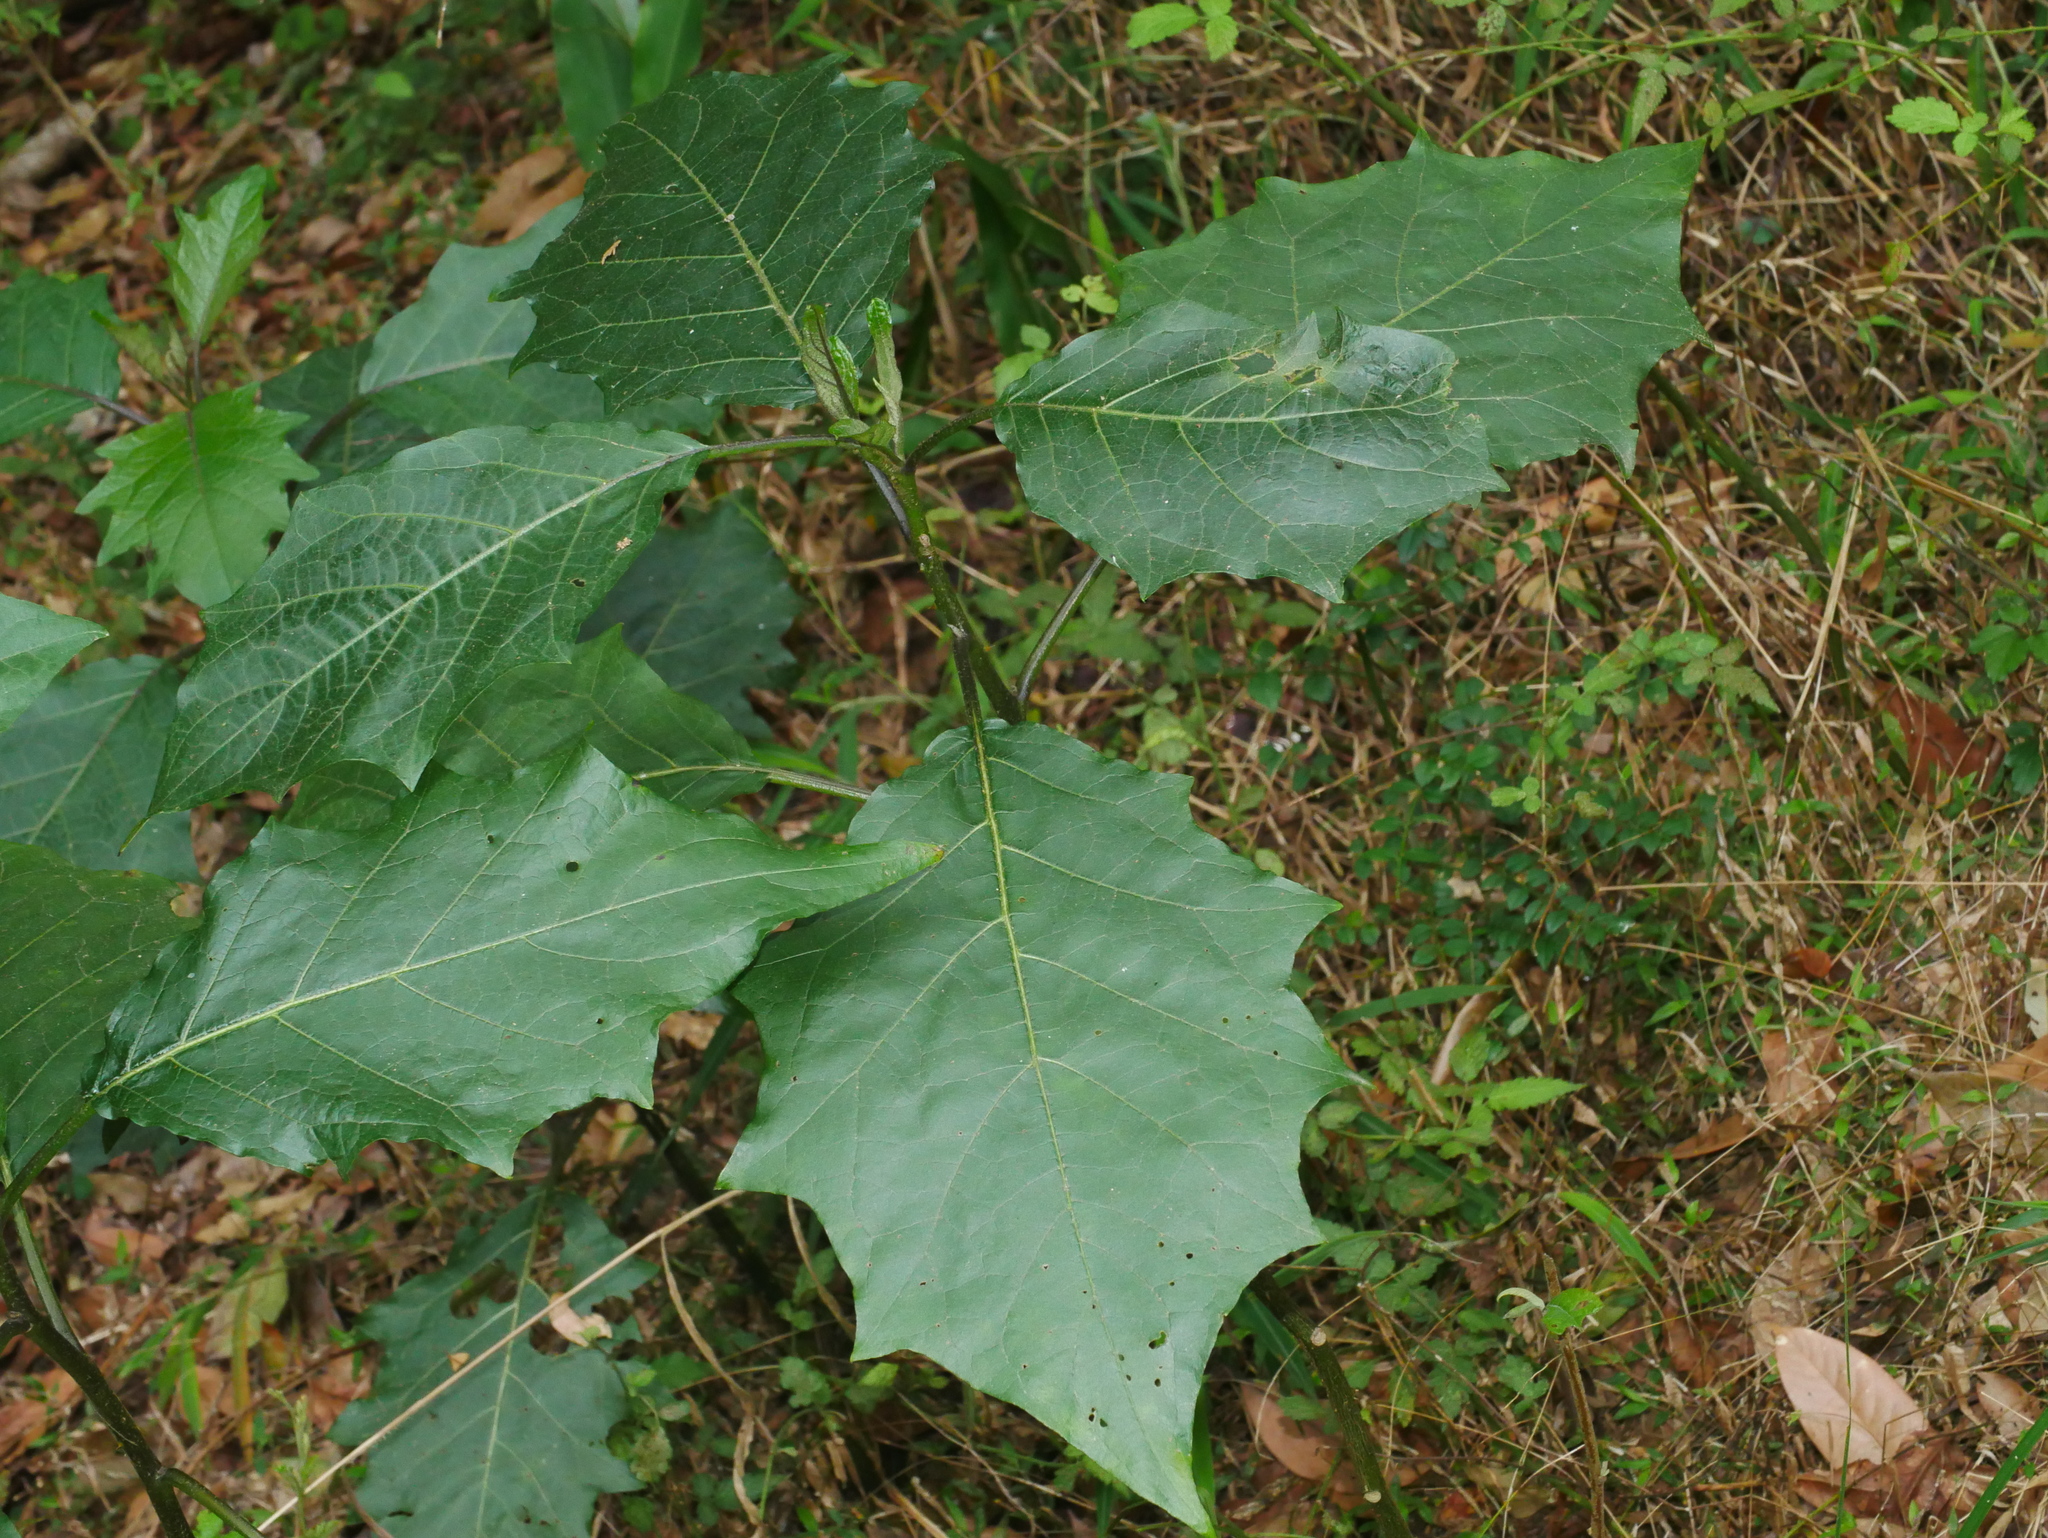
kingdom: Plantae
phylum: Tracheophyta
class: Magnoliopsida
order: Solanales
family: Solanaceae
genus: Solanum
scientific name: Solanum peikuoense
